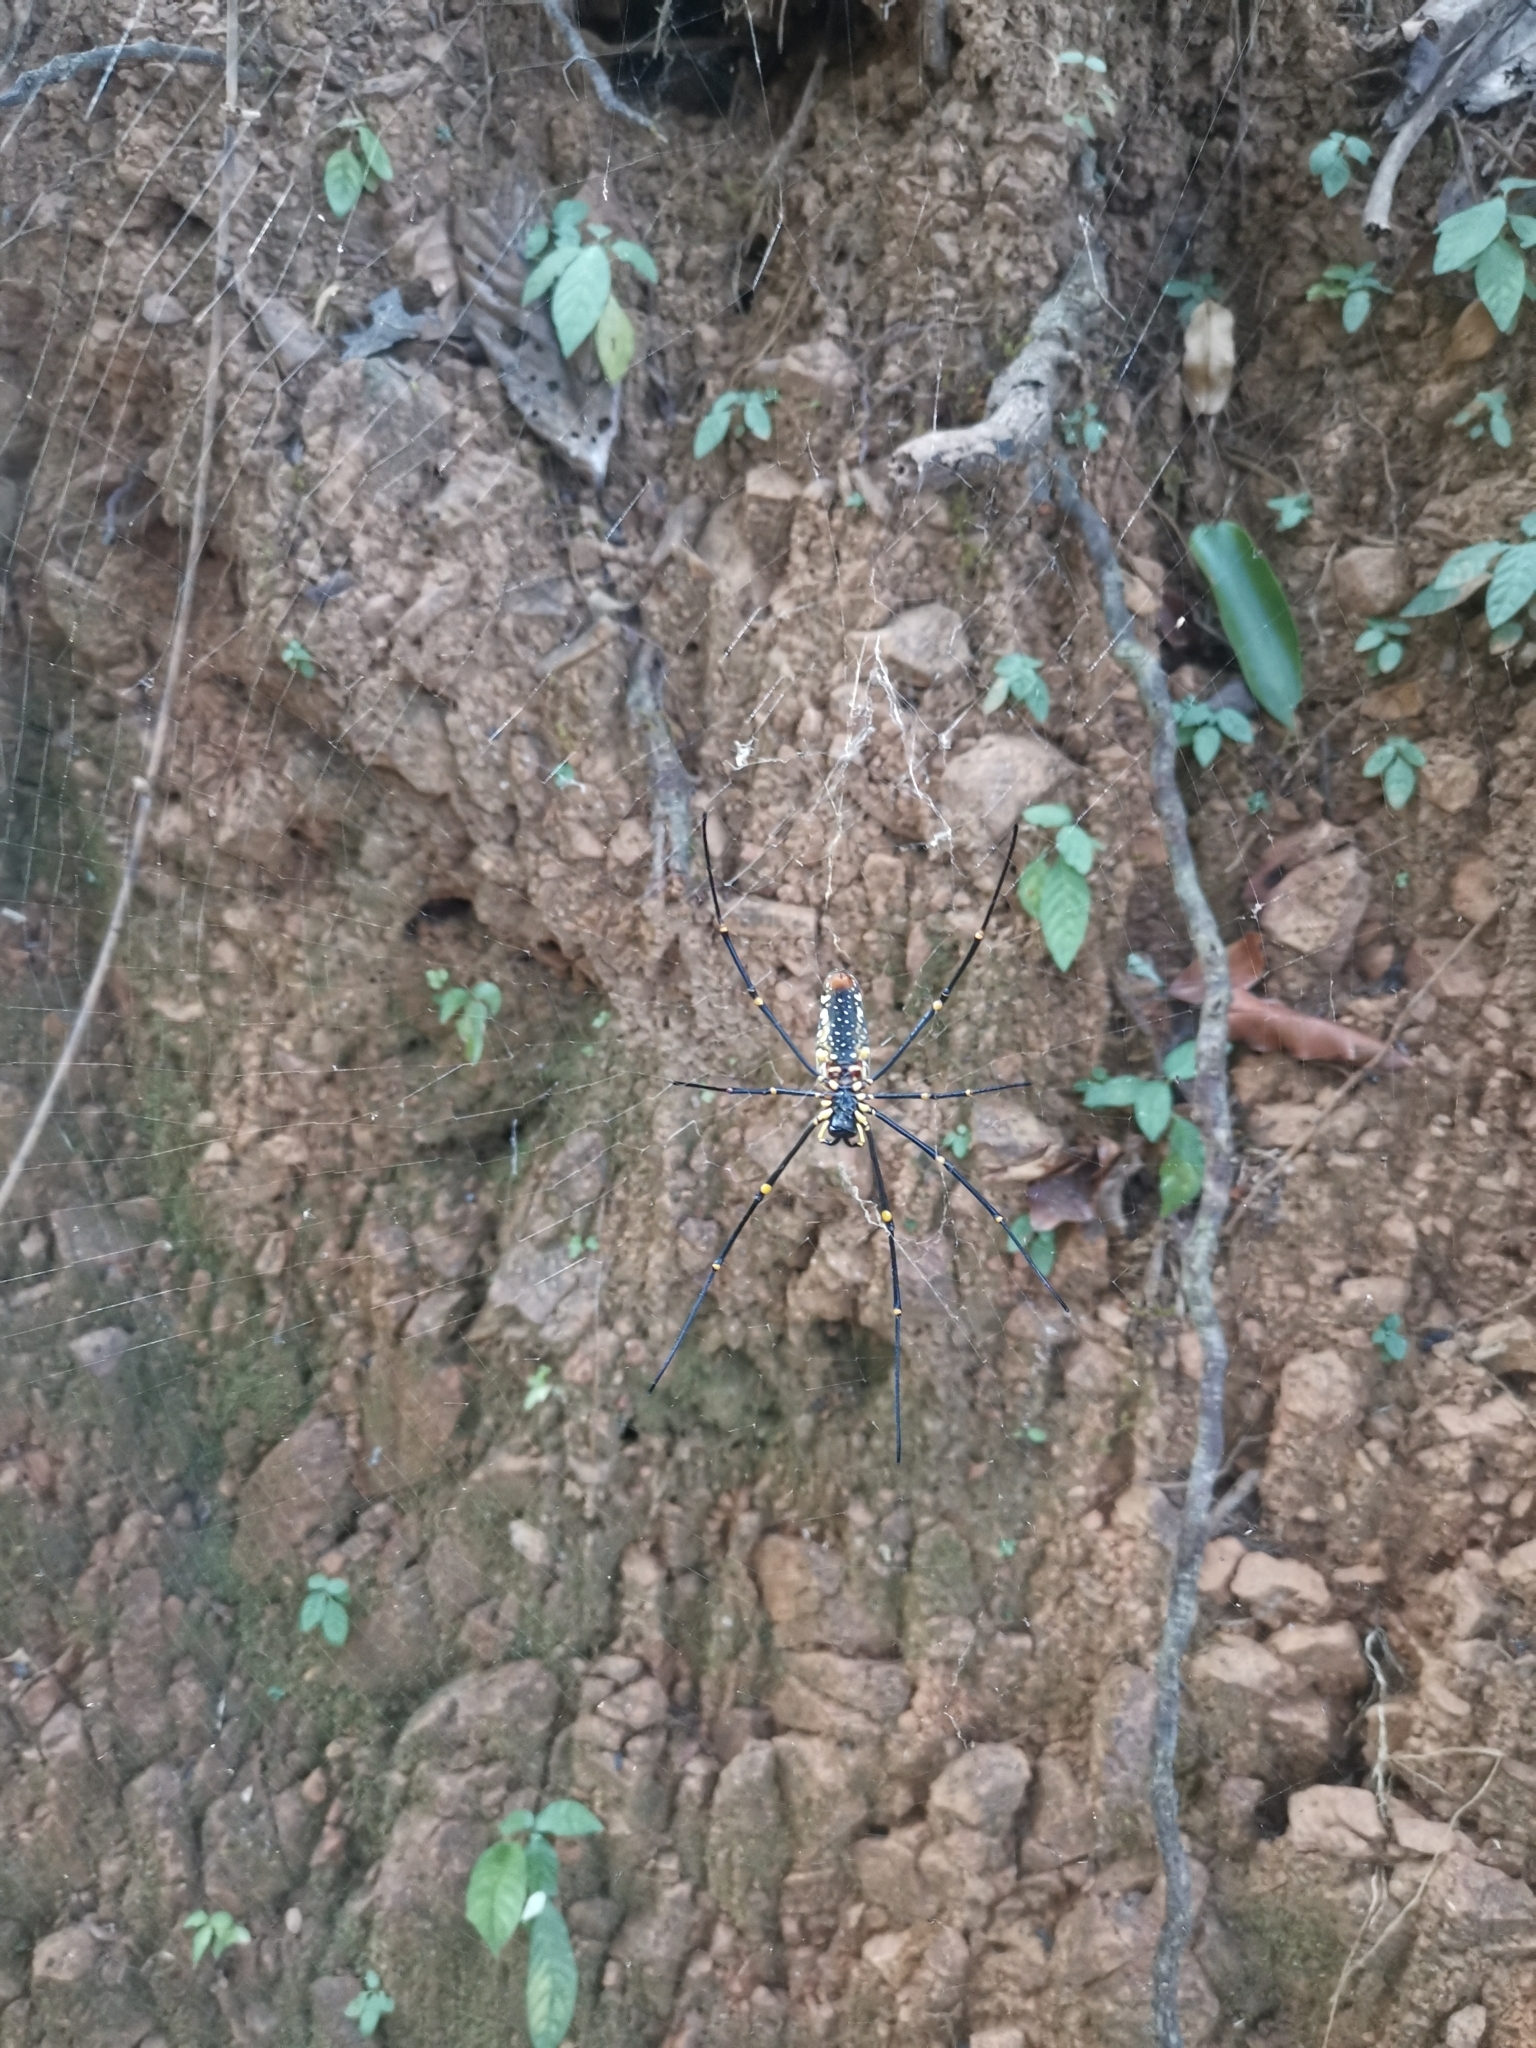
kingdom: Animalia
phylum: Arthropoda
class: Arachnida
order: Araneae
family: Araneidae
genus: Nephila
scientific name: Nephila pilipes
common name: Giant golden orb weaver
